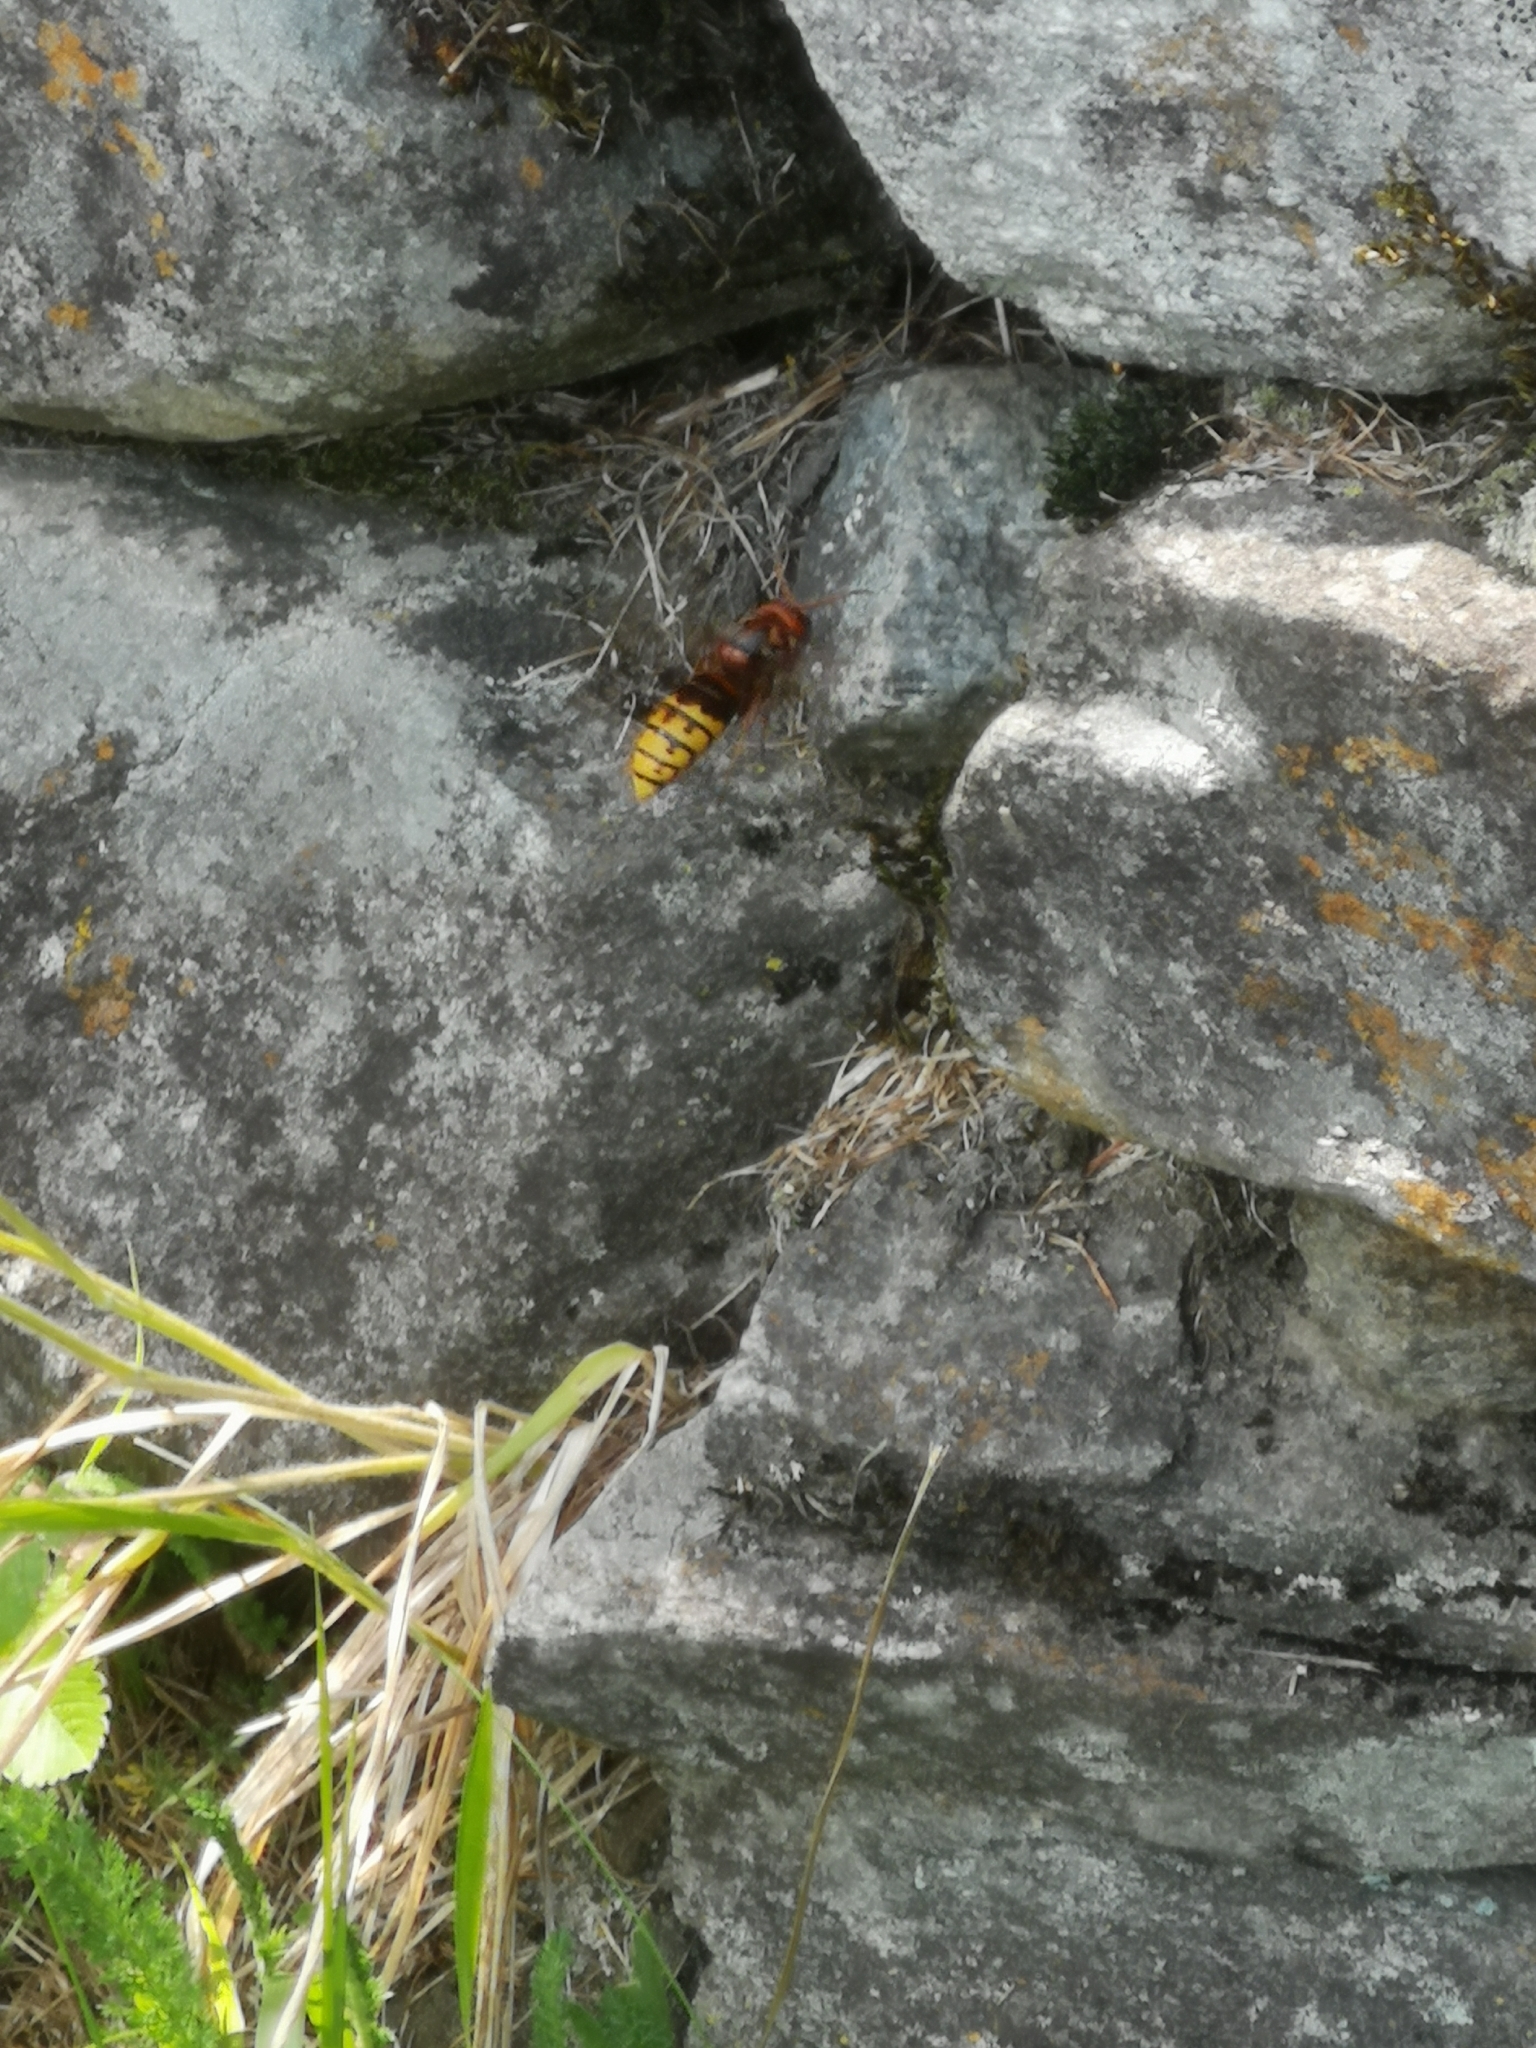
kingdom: Animalia
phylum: Arthropoda
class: Insecta
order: Hymenoptera
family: Vespidae
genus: Vespa
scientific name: Vespa crabro
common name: Hornet
